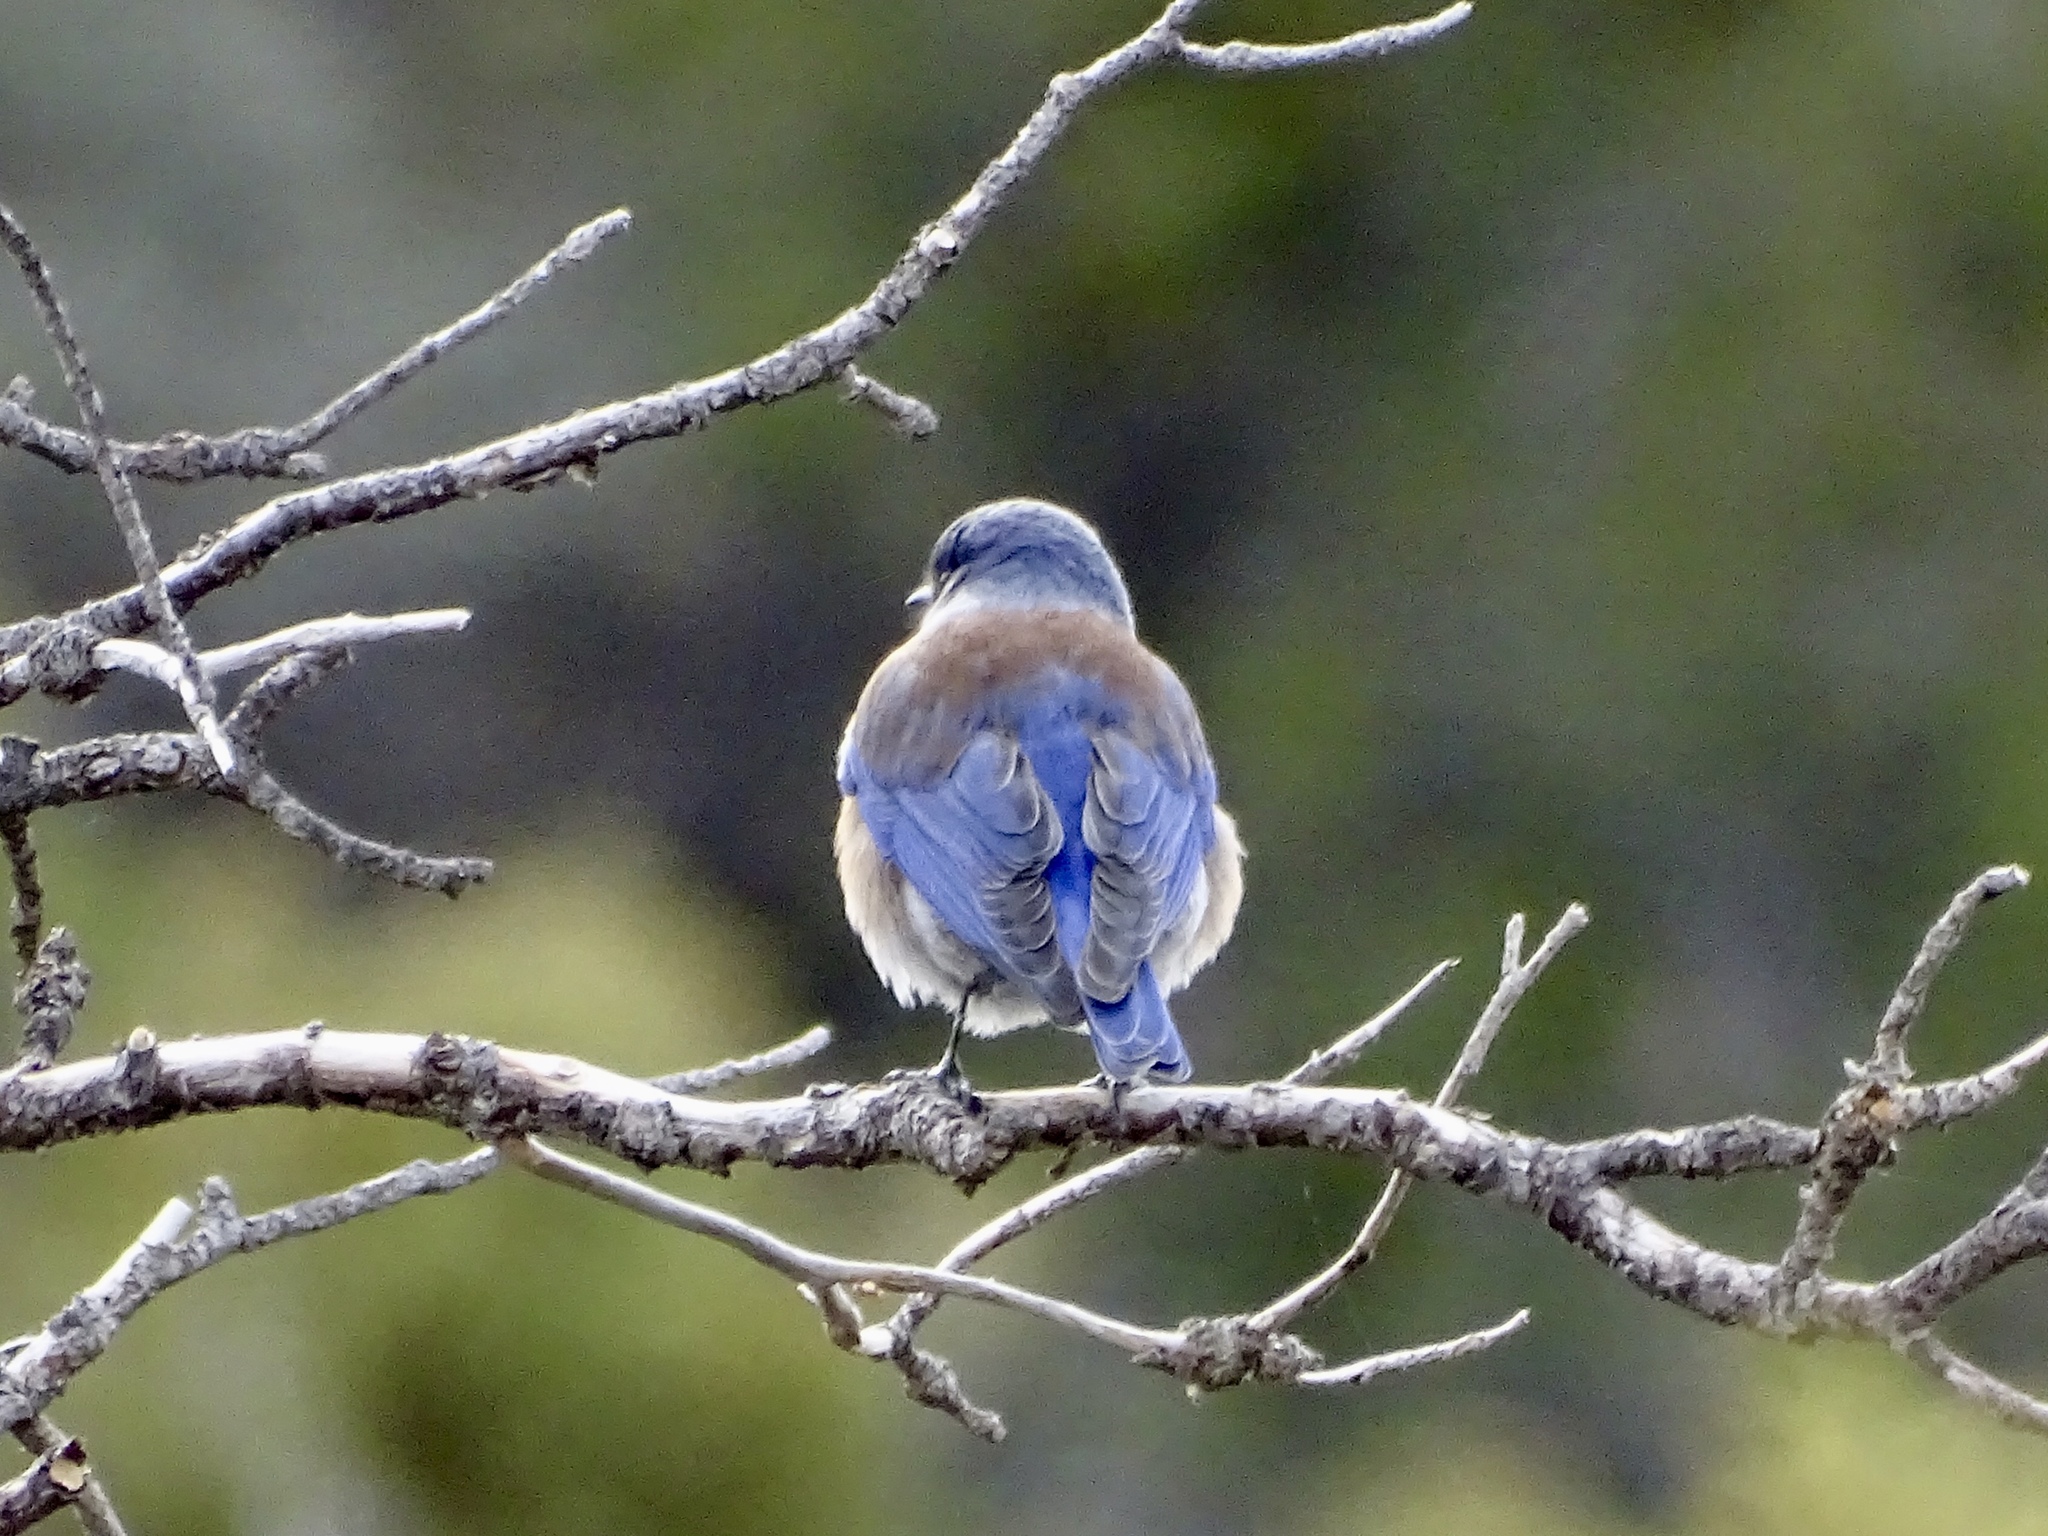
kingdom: Animalia
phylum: Chordata
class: Aves
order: Passeriformes
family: Turdidae
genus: Sialia
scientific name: Sialia mexicana
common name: Western bluebird
